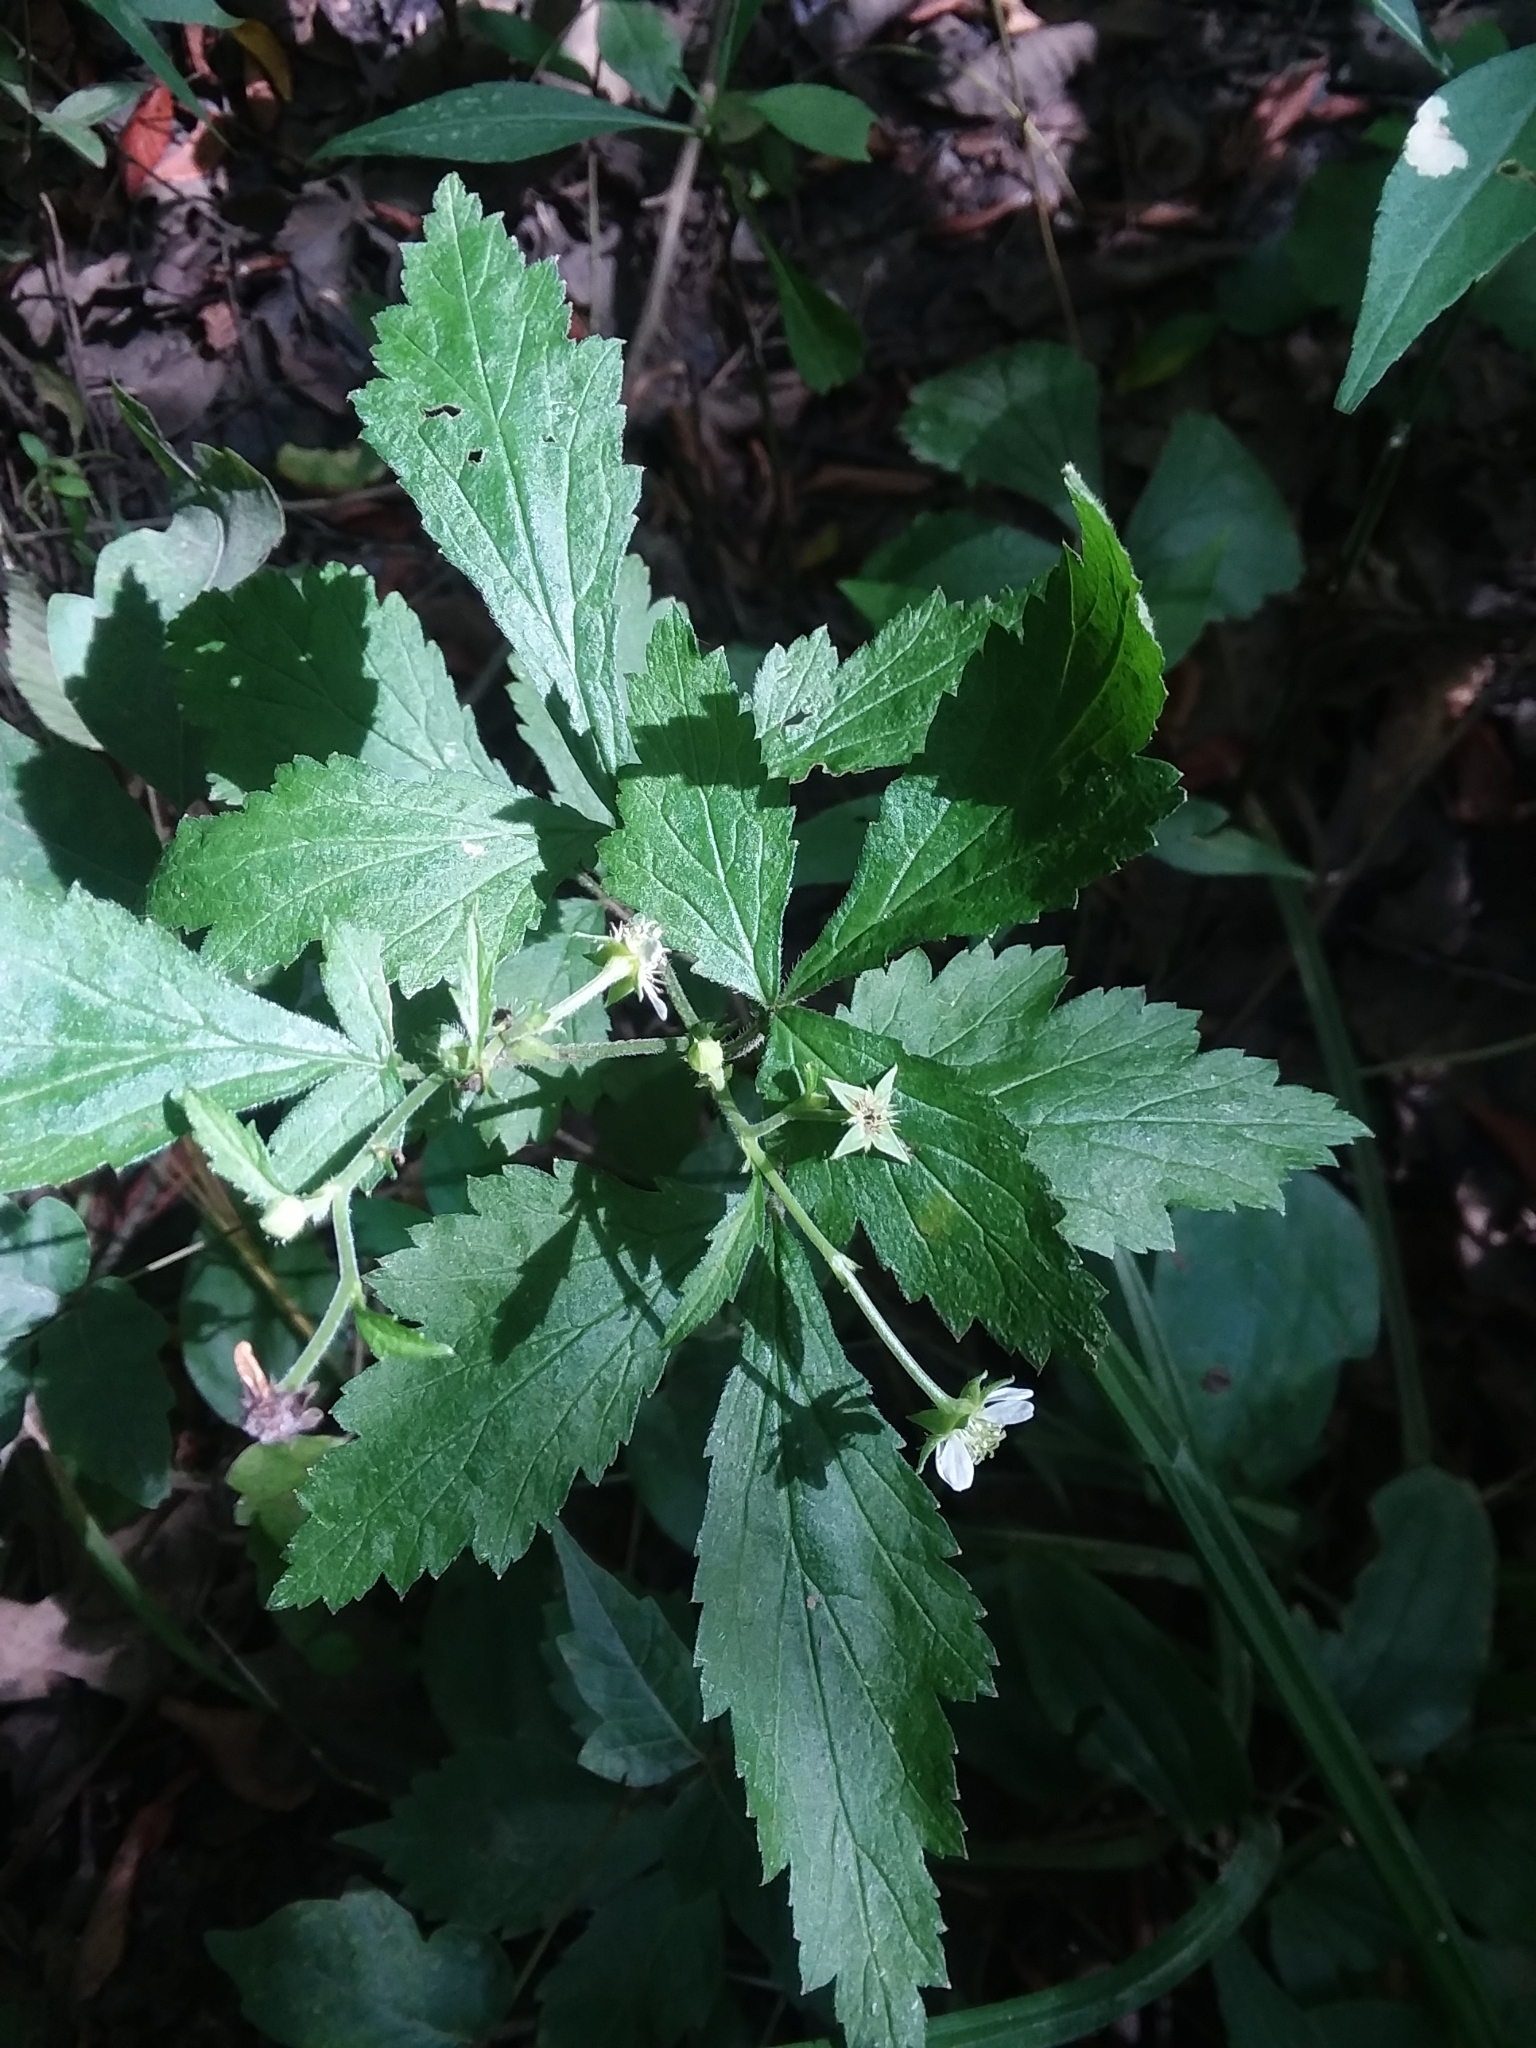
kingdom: Plantae
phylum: Tracheophyta
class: Magnoliopsida
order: Rosales
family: Rosaceae
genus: Geum
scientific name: Geum canadense
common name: White avens
